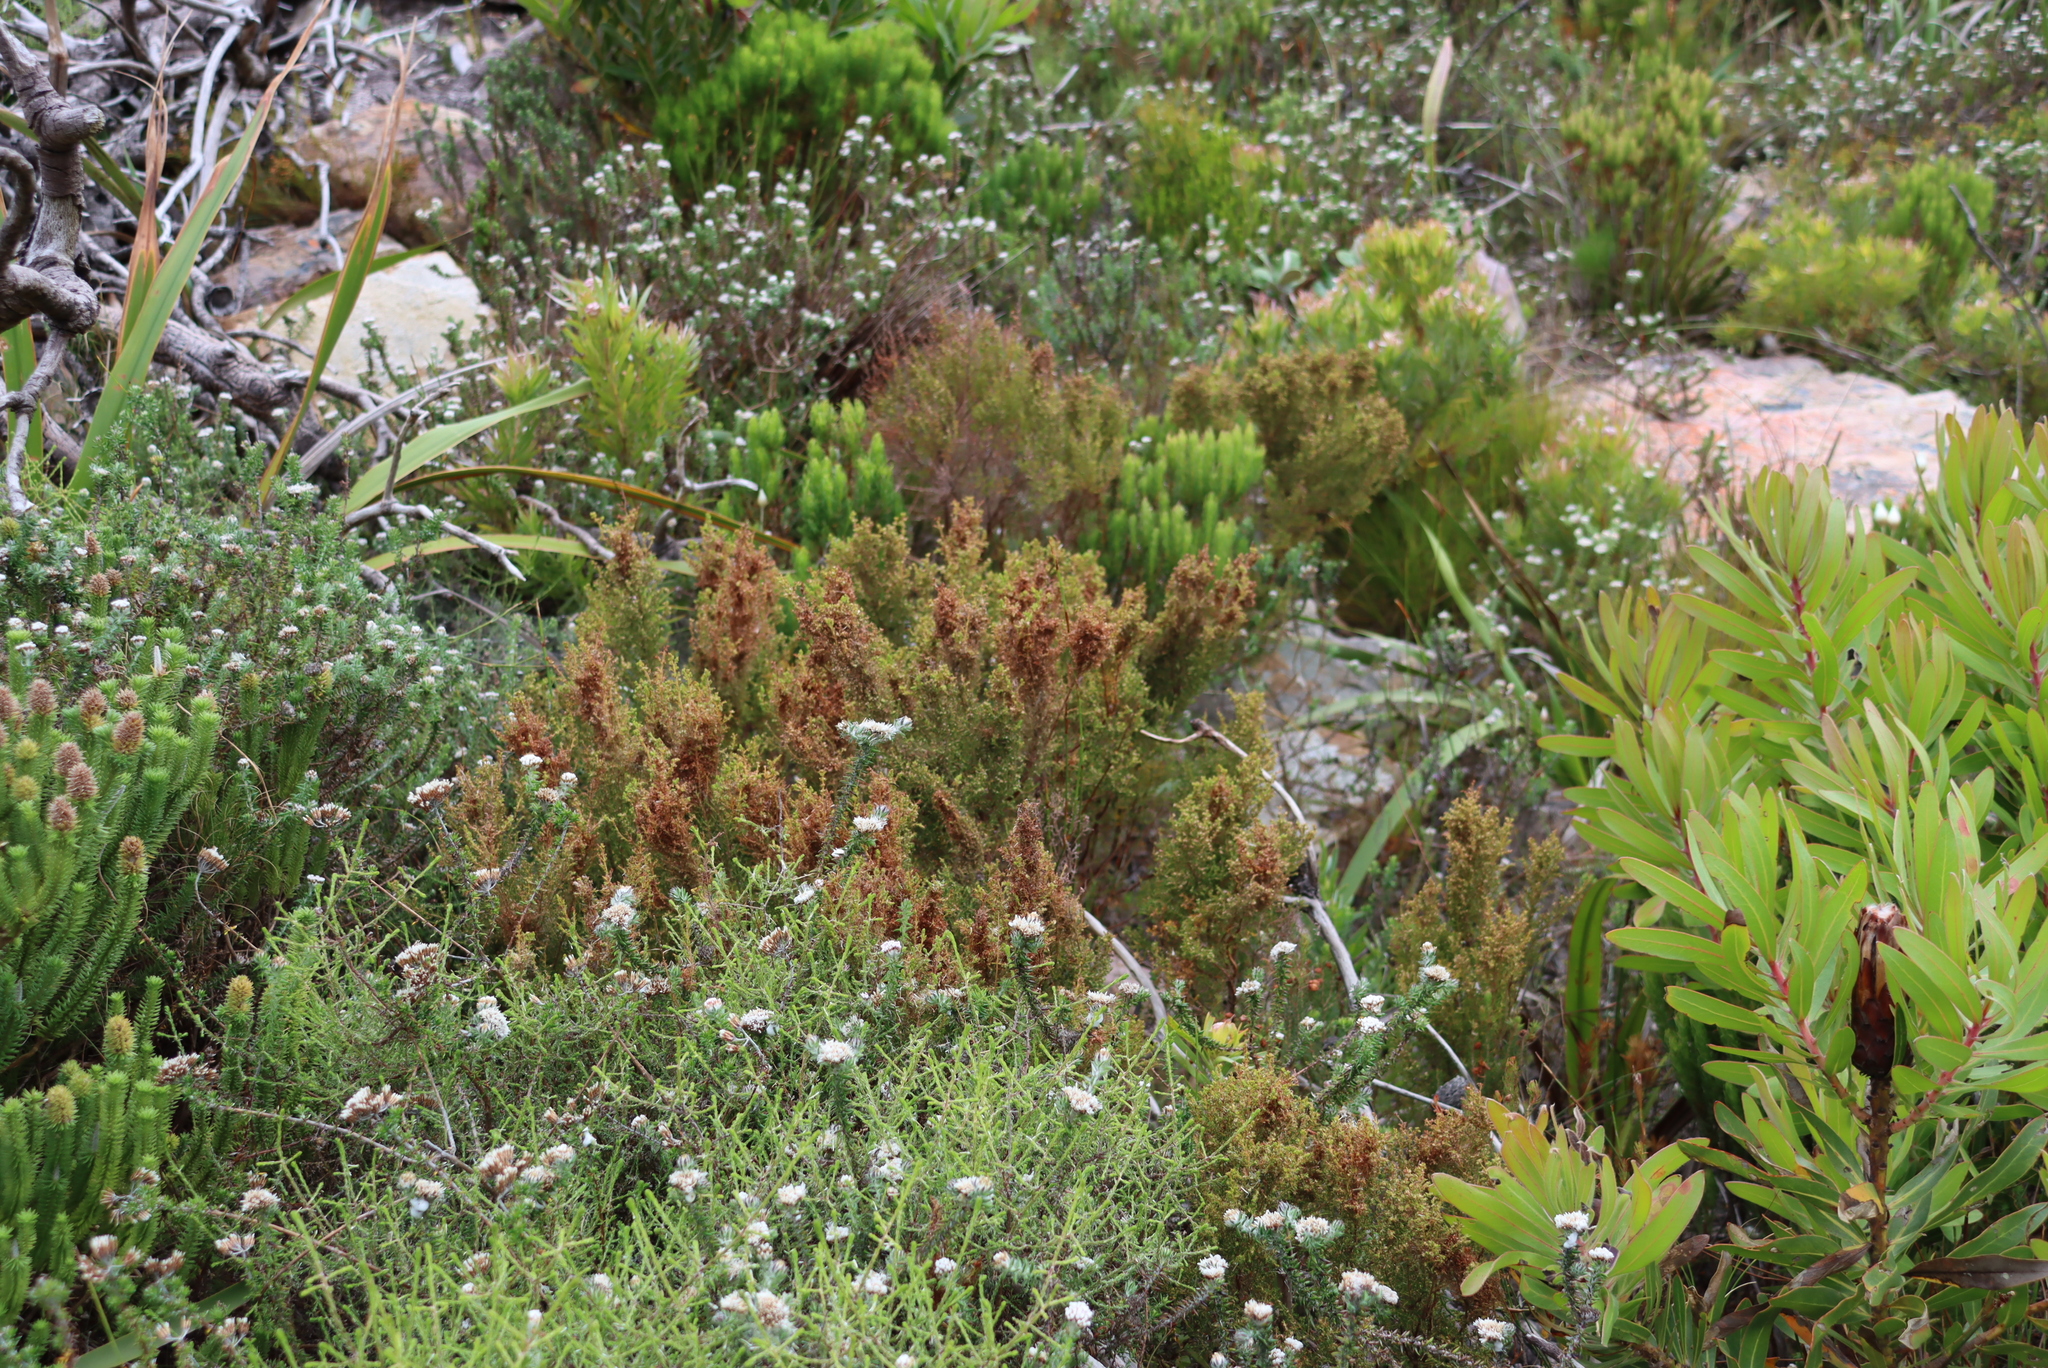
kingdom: Plantae
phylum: Tracheophyta
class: Magnoliopsida
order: Ericales
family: Ericaceae
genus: Erica
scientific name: Erica muscosa
